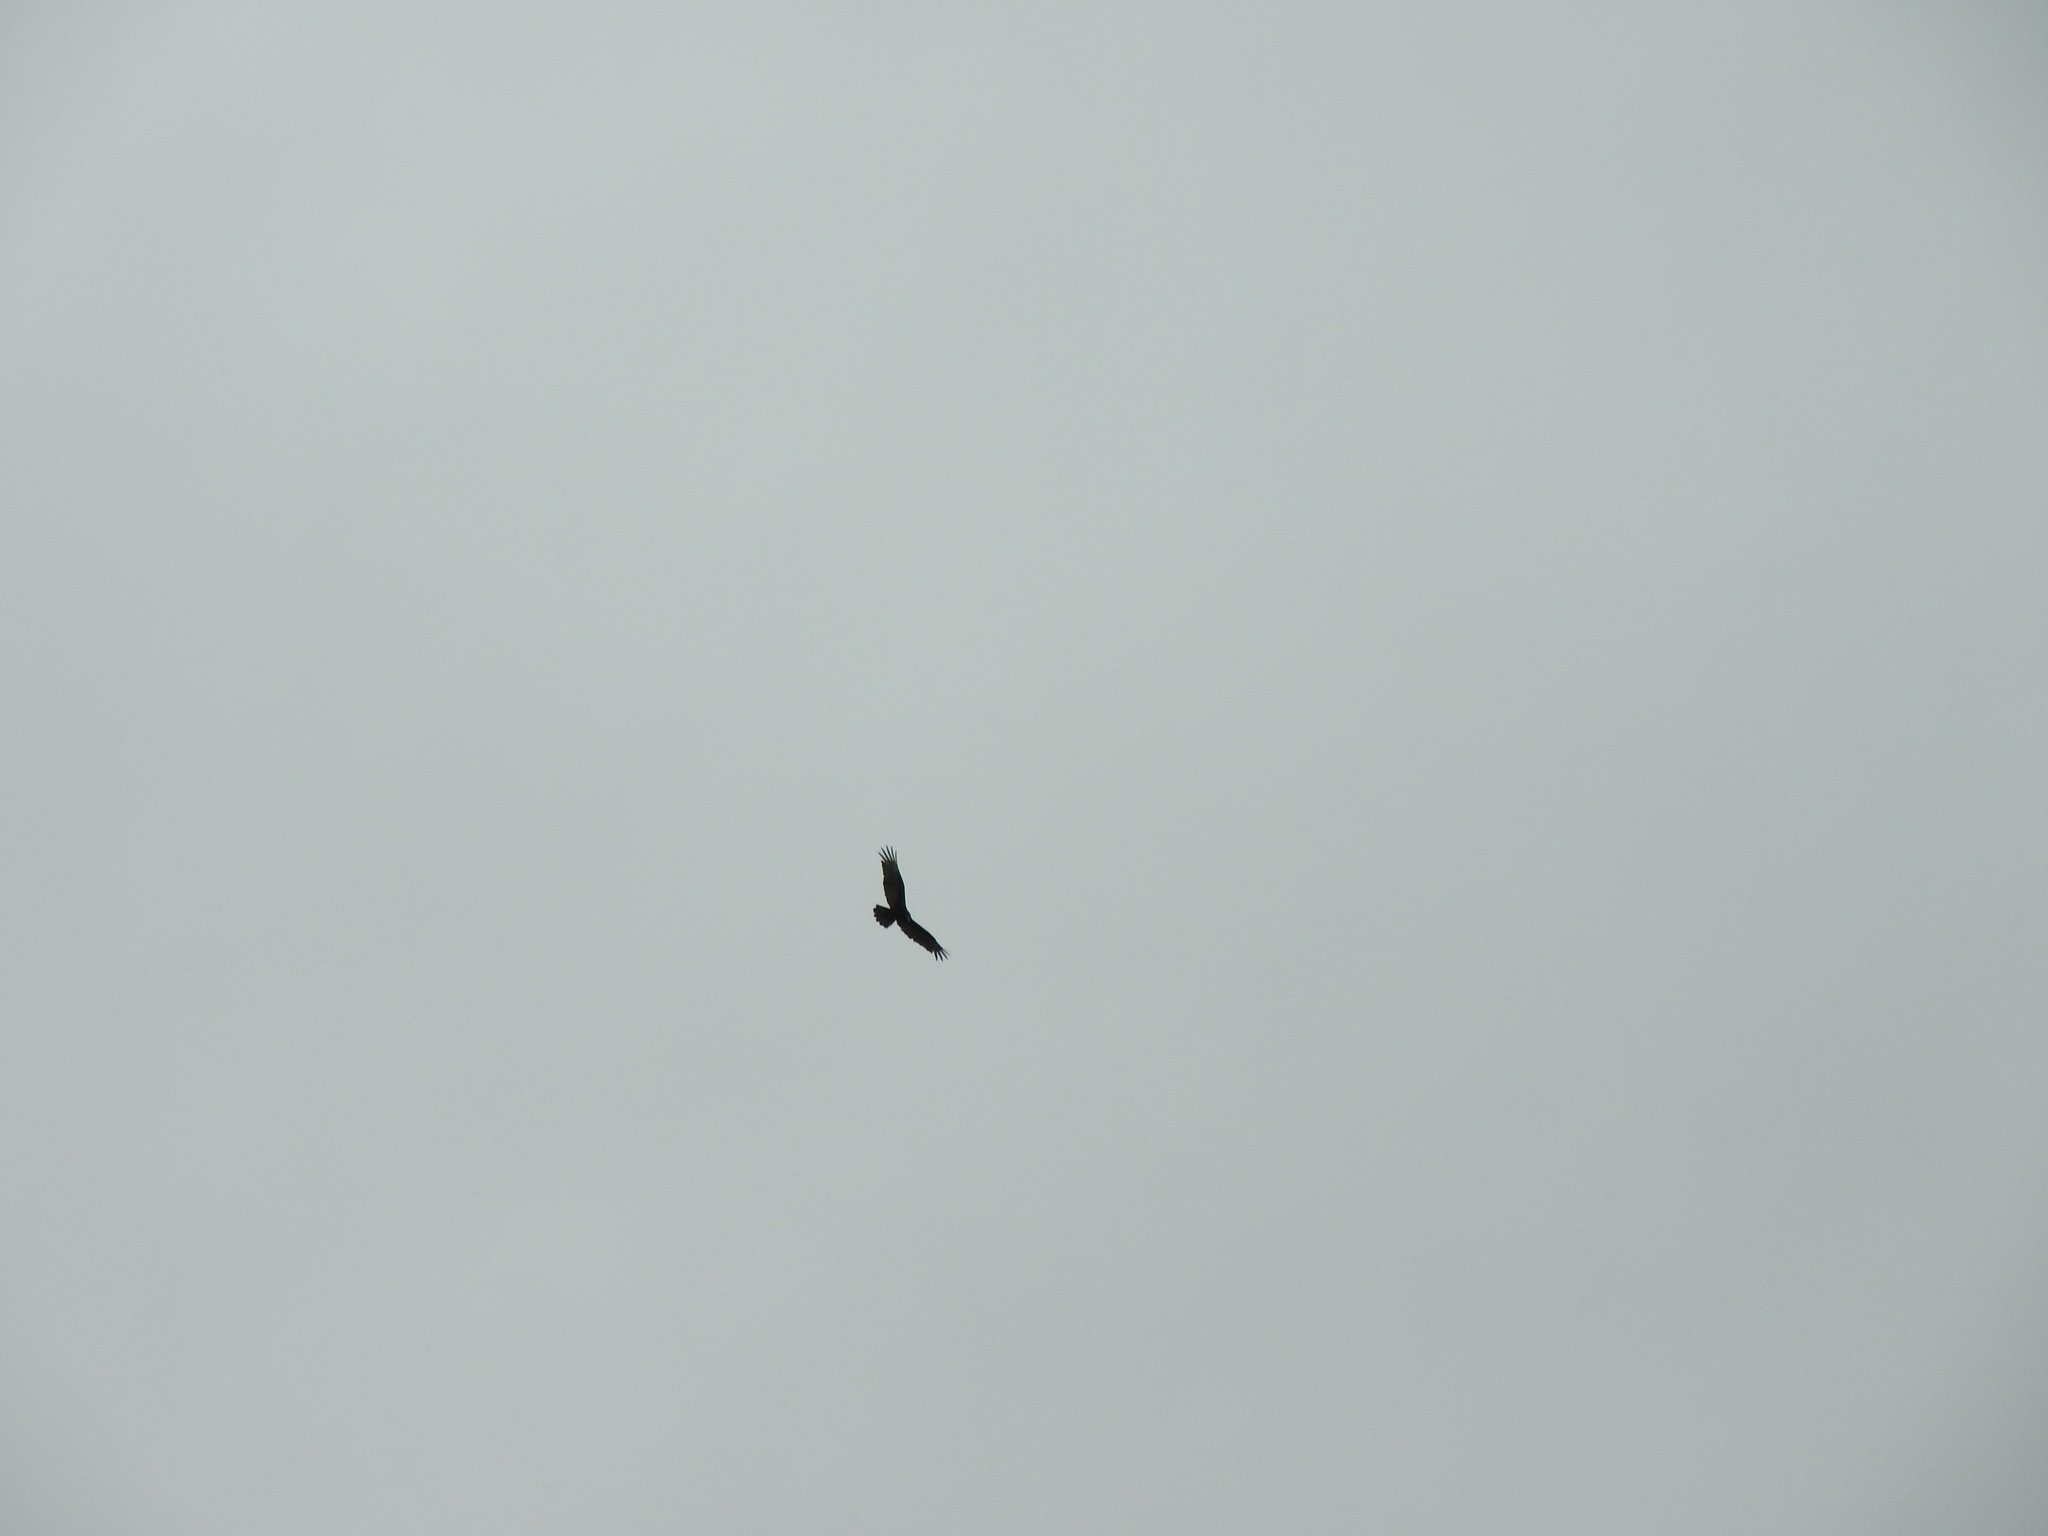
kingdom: Animalia
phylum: Chordata
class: Aves
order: Accipitriformes
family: Cathartidae
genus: Cathartes
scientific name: Cathartes aura
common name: Turkey vulture
